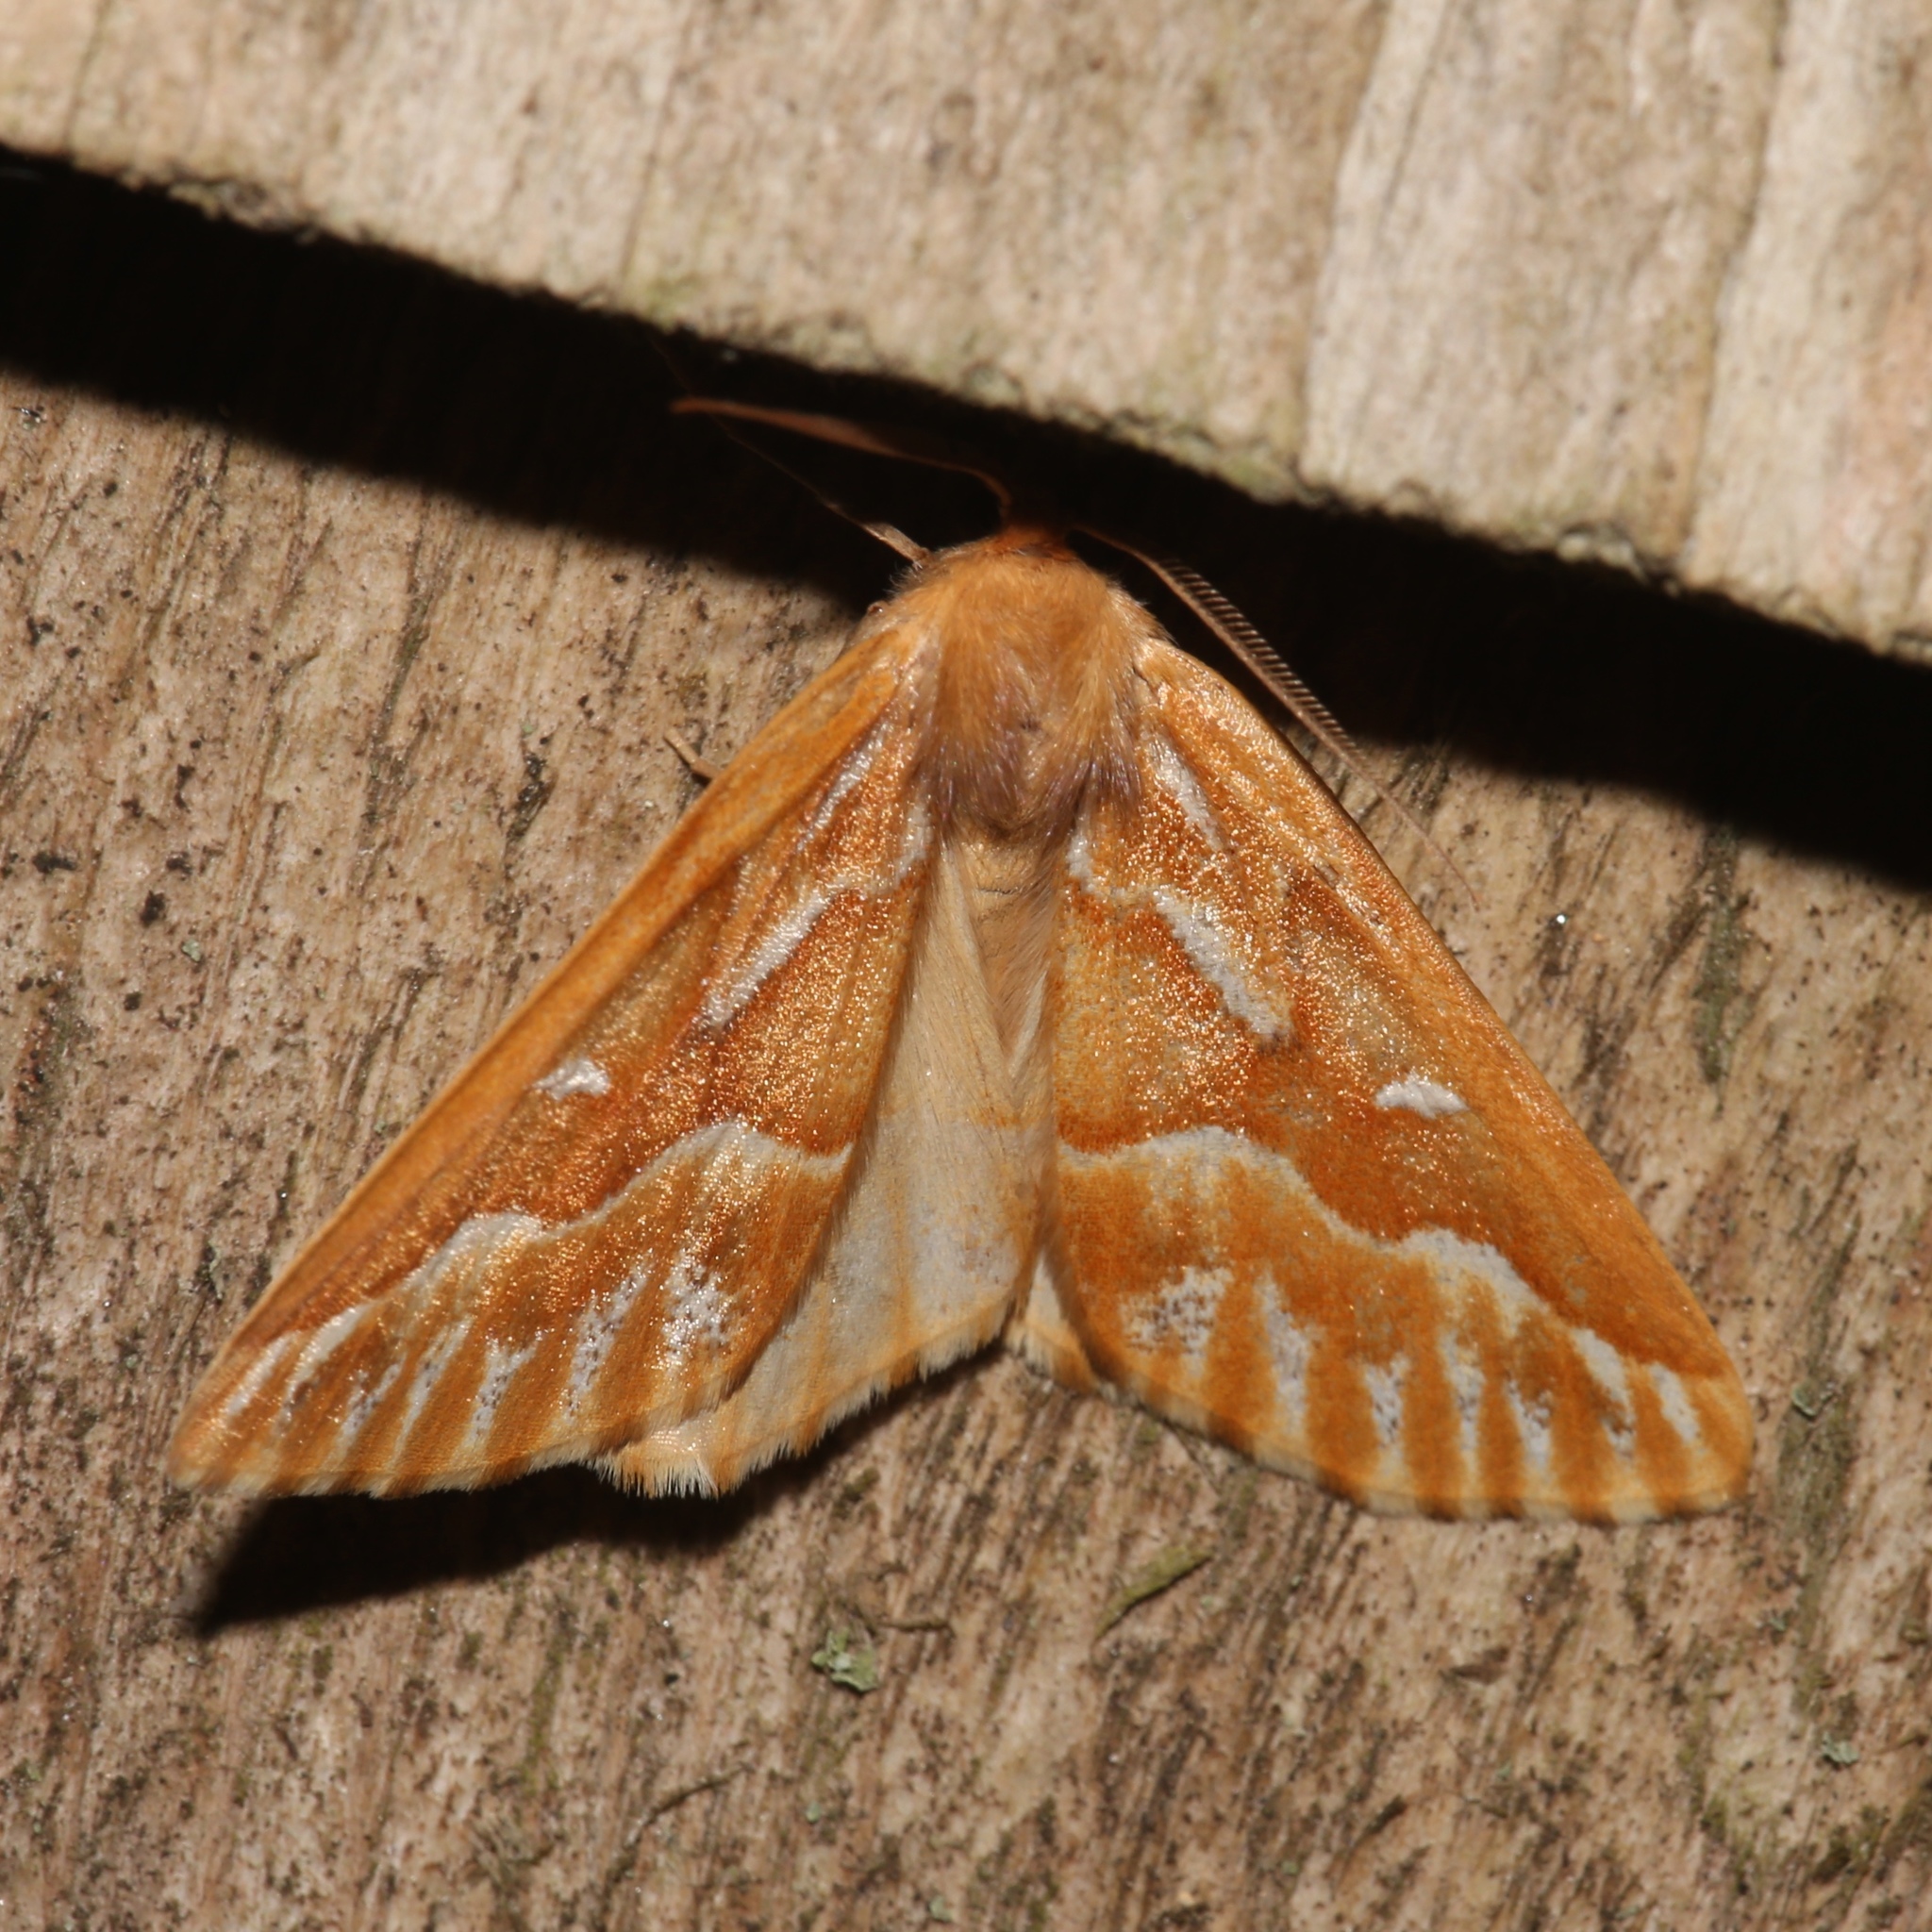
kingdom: Animalia
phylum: Arthropoda
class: Insecta
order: Lepidoptera
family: Geometridae
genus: Caripeta
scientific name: Caripeta piniata
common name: Northern pine looper moth
